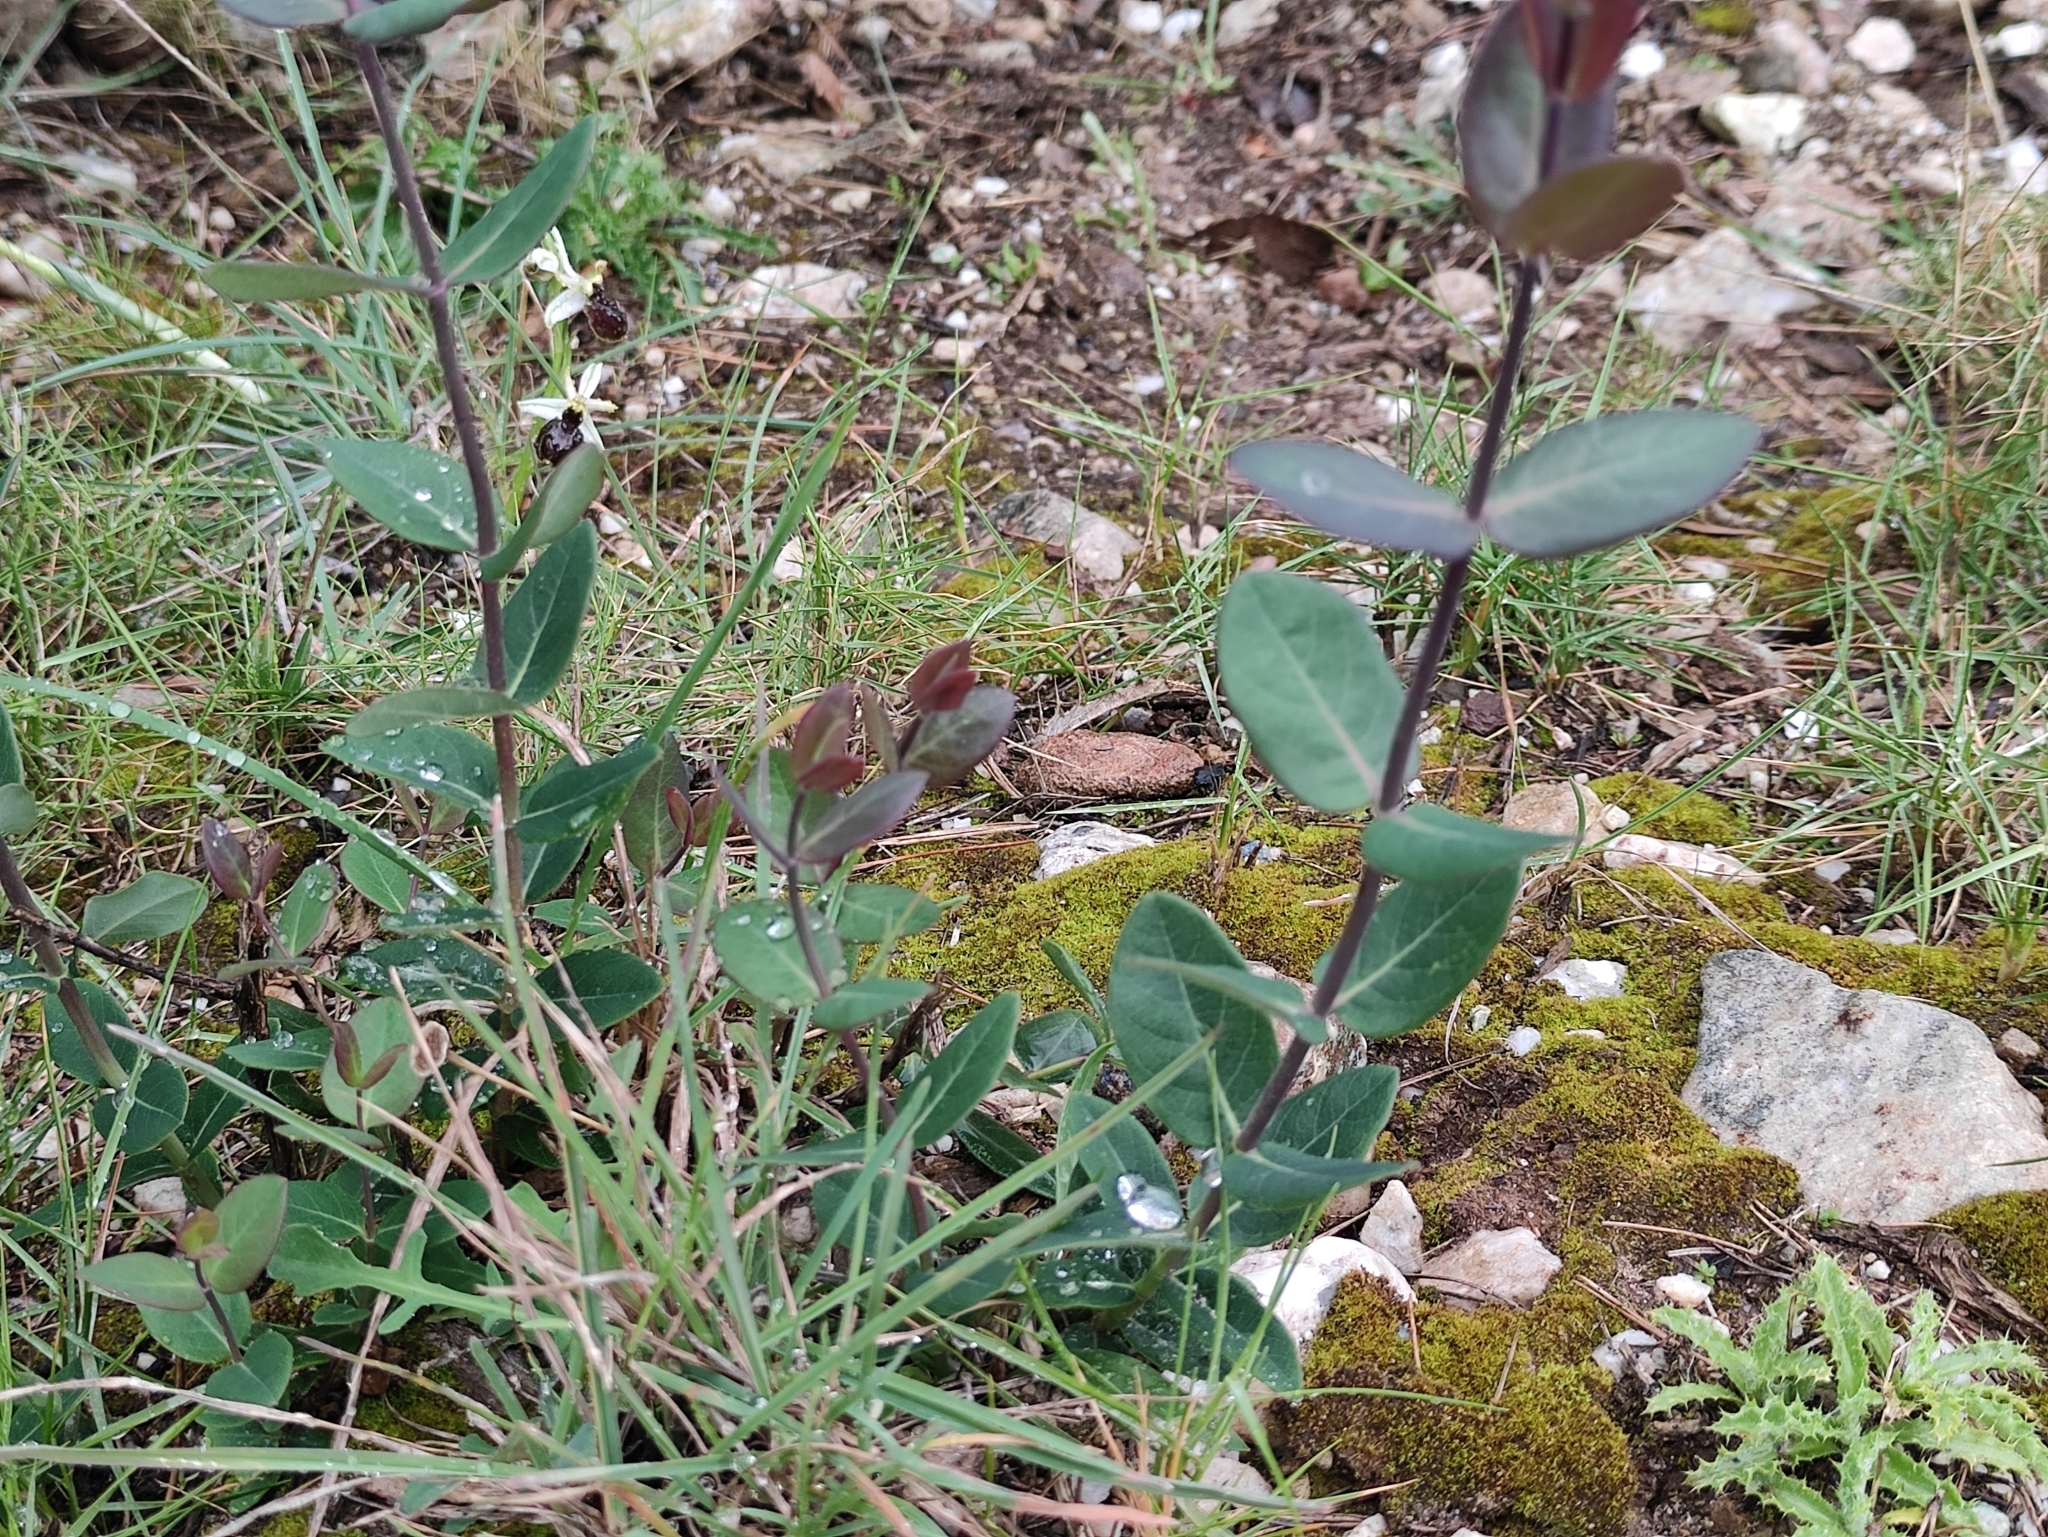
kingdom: Plantae
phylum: Tracheophyta
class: Magnoliopsida
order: Dipsacales
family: Caprifoliaceae
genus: Lonicera
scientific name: Lonicera implexa
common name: Minorca honeysuckle
